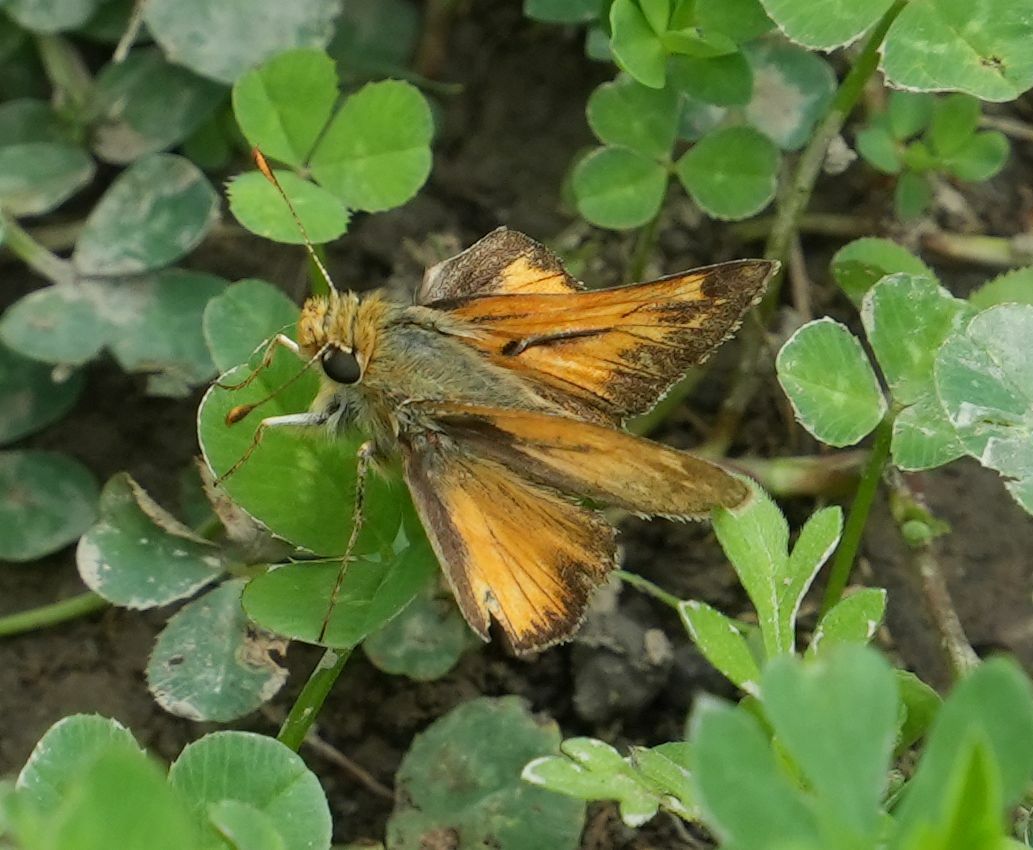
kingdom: Animalia
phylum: Arthropoda
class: Insecta
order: Lepidoptera
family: Hesperiidae
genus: Hesperia
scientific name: Hesperia sassacus
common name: Indian skipper
